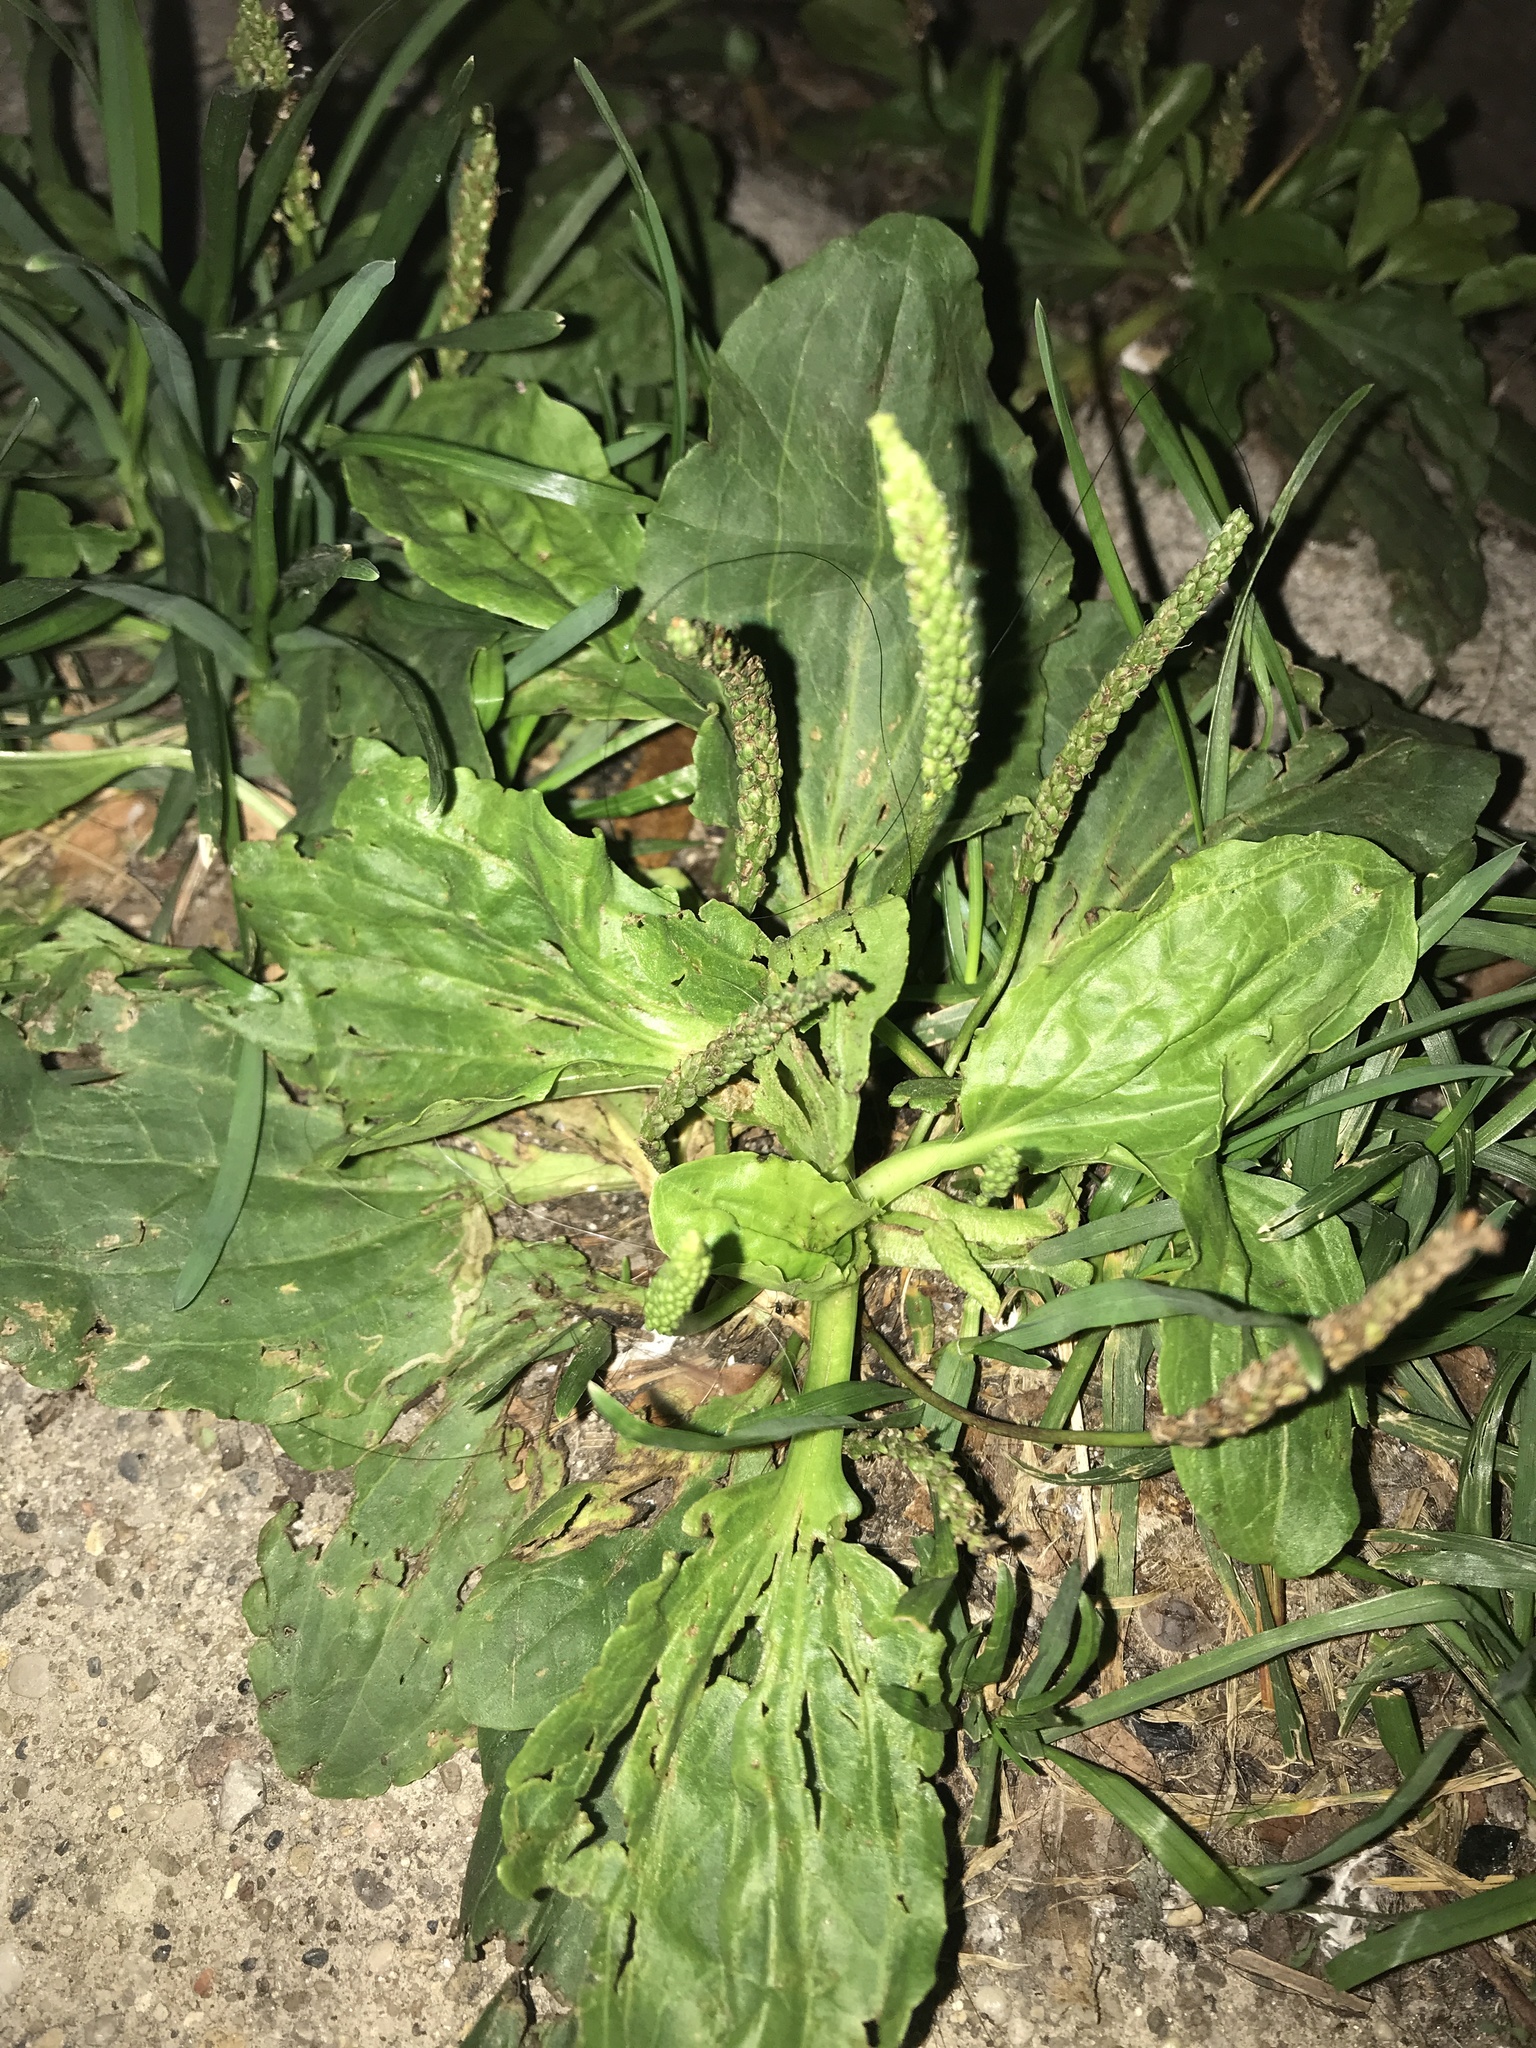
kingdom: Plantae
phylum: Tracheophyta
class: Magnoliopsida
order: Lamiales
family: Plantaginaceae
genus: Plantago
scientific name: Plantago major
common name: Common plantain
